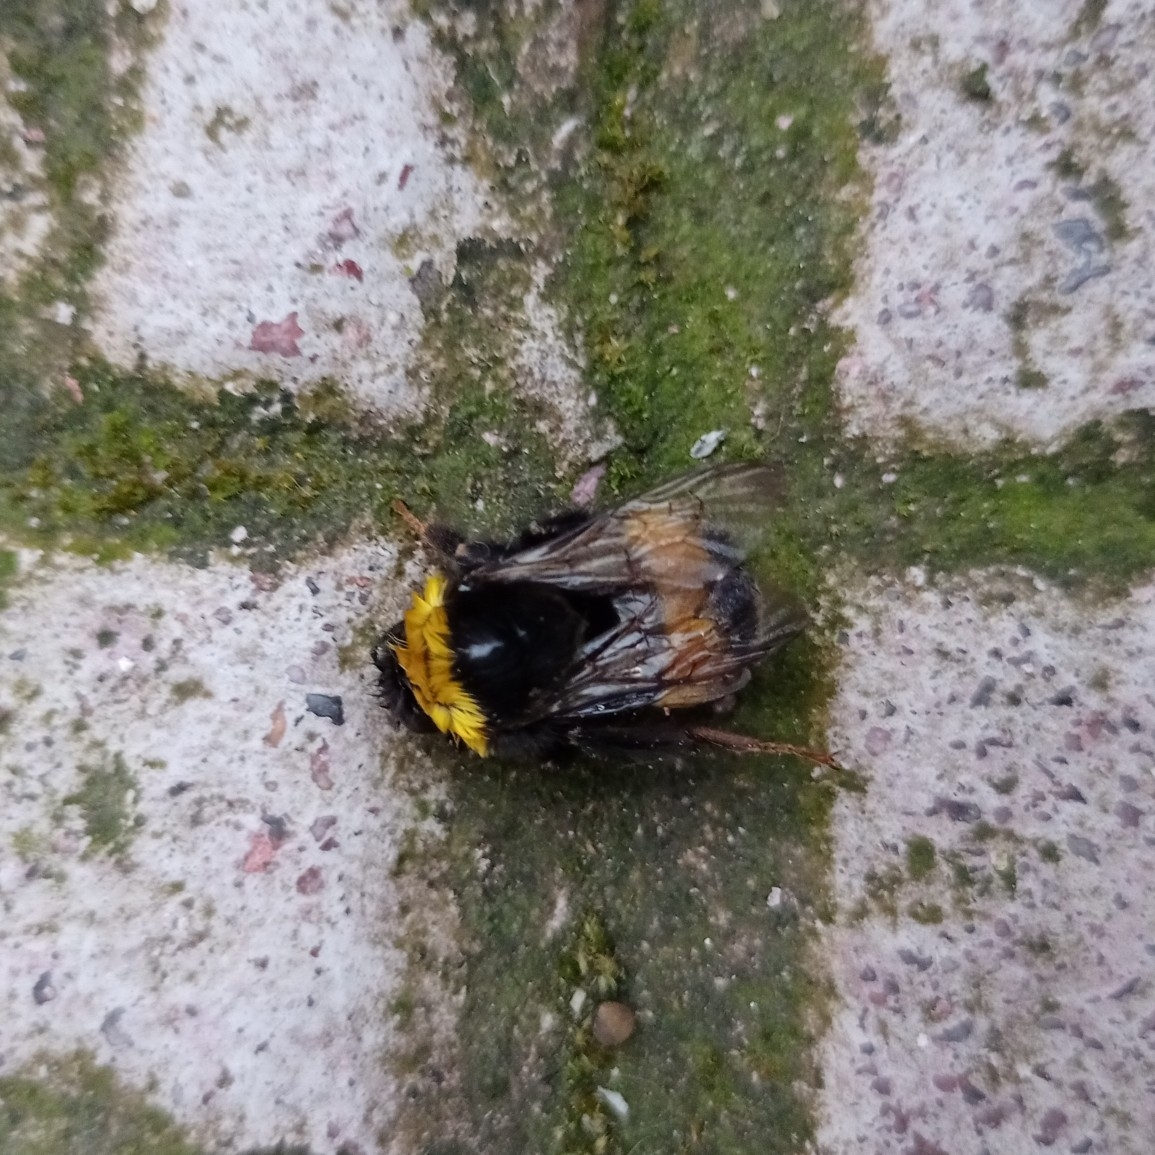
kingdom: Animalia
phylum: Arthropoda
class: Insecta
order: Hymenoptera
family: Apidae
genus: Bombus
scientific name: Bombus terrestris
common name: Buff-tailed bumblebee
